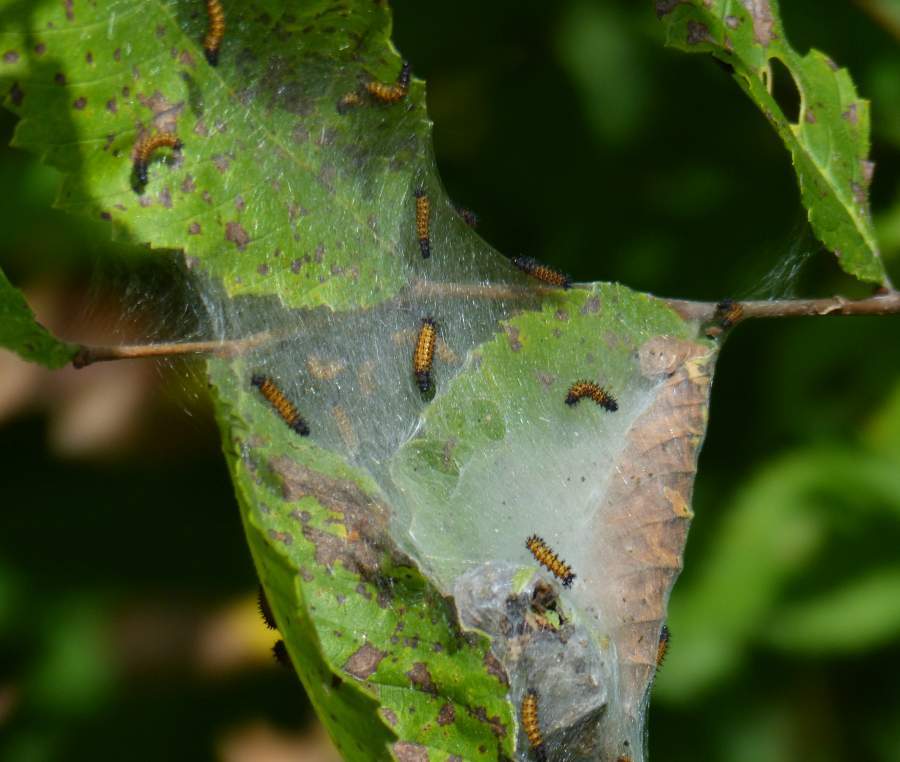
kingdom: Animalia
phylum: Arthropoda
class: Insecta
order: Lepidoptera
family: Nymphalidae
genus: Euphydryas
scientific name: Euphydryas phaeton
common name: Baltimore checkerspot
